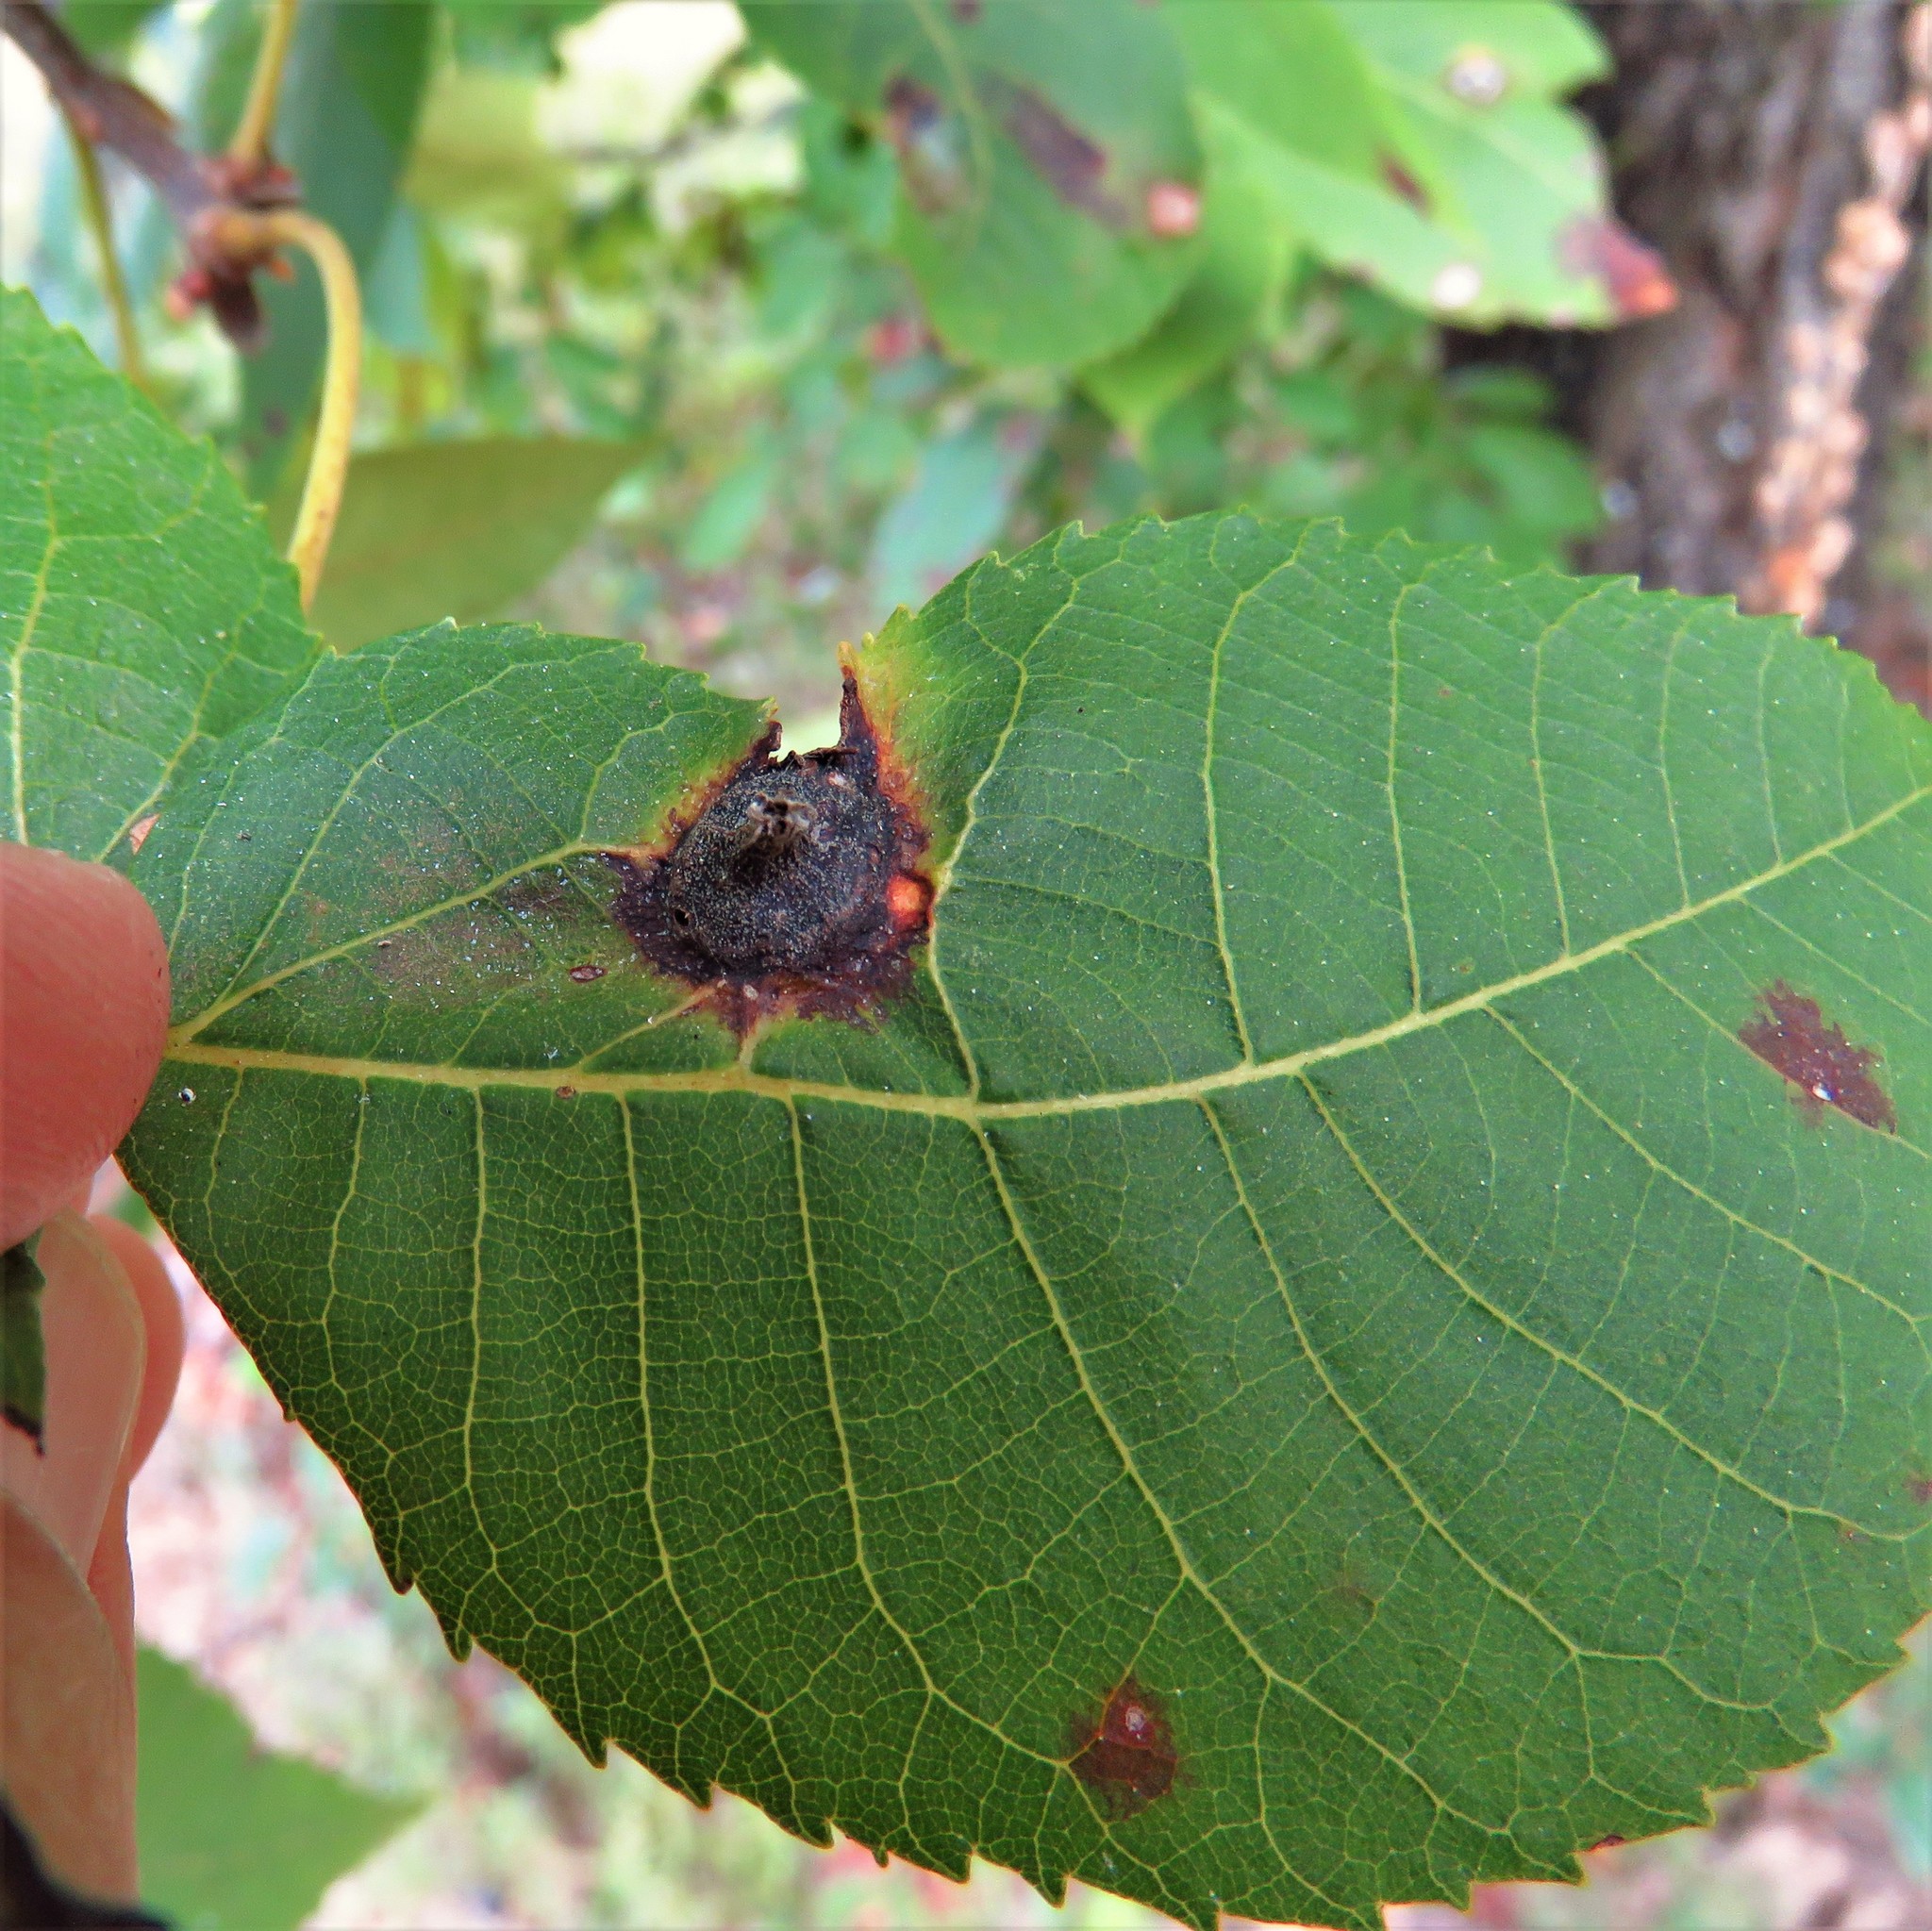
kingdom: Animalia
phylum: Arthropoda
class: Insecta
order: Hemiptera
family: Phylloxeridae
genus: Phylloxera
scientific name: Phylloxera caryaefoliae
